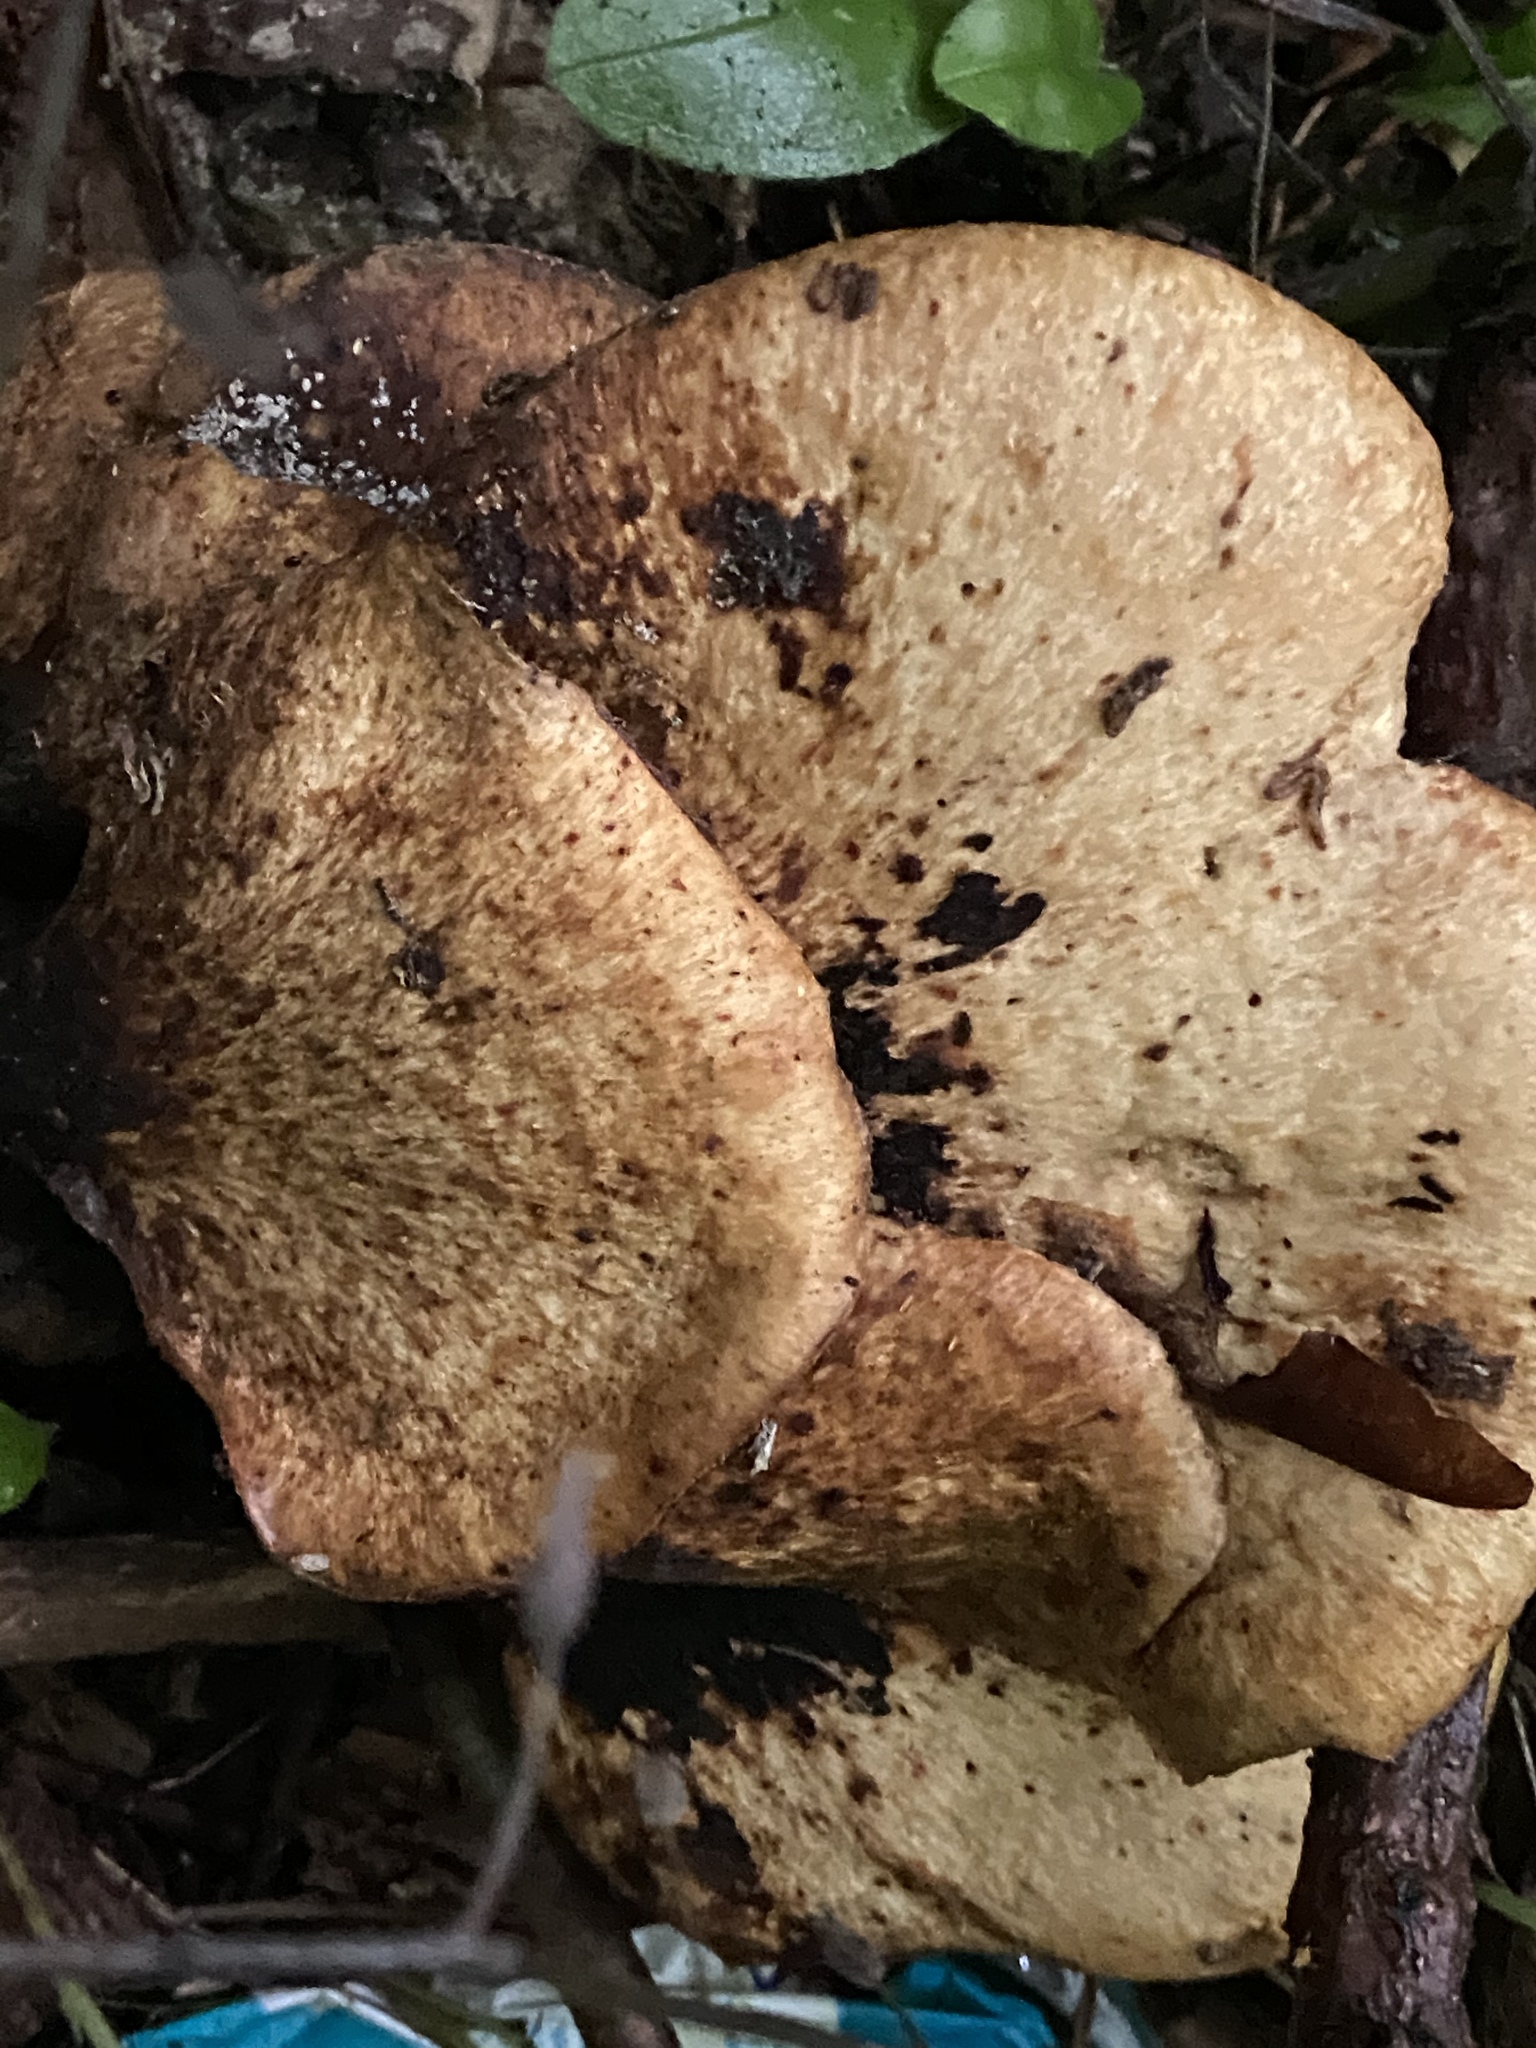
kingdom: Fungi
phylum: Basidiomycota
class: Agaricomycetes
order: Polyporales
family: Polyporaceae
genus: Cerioporus
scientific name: Cerioporus squamosus
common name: Dryad's saddle
